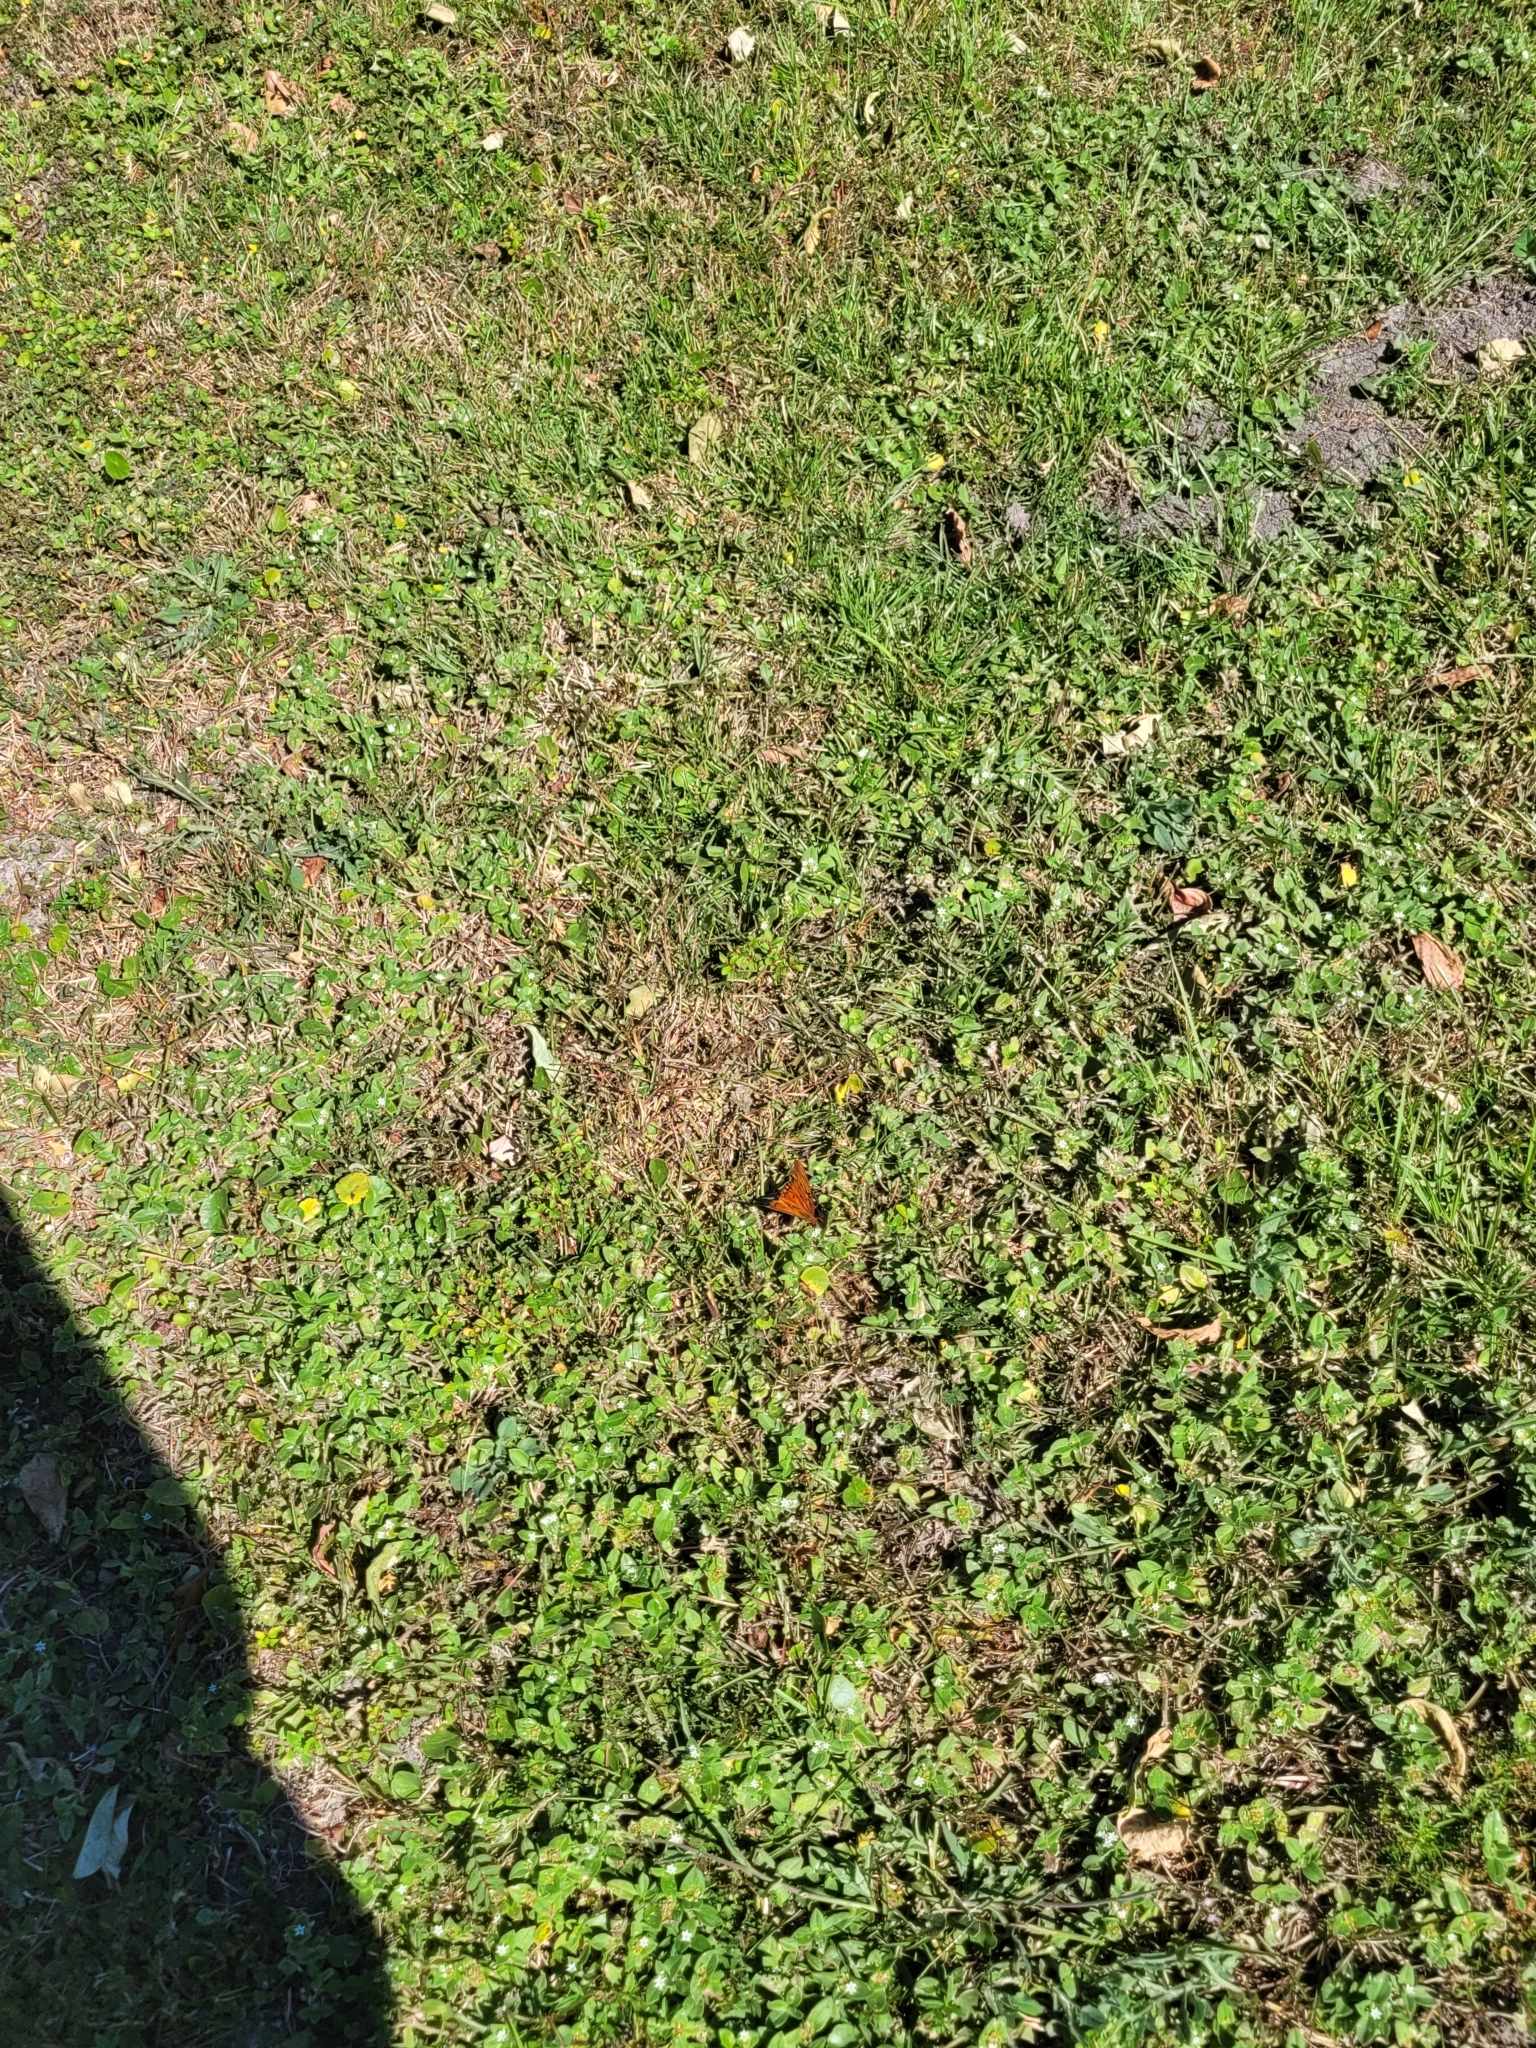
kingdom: Animalia
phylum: Arthropoda
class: Insecta
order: Lepidoptera
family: Nymphalidae
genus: Dione
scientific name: Dione vanillae
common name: Gulf fritillary
